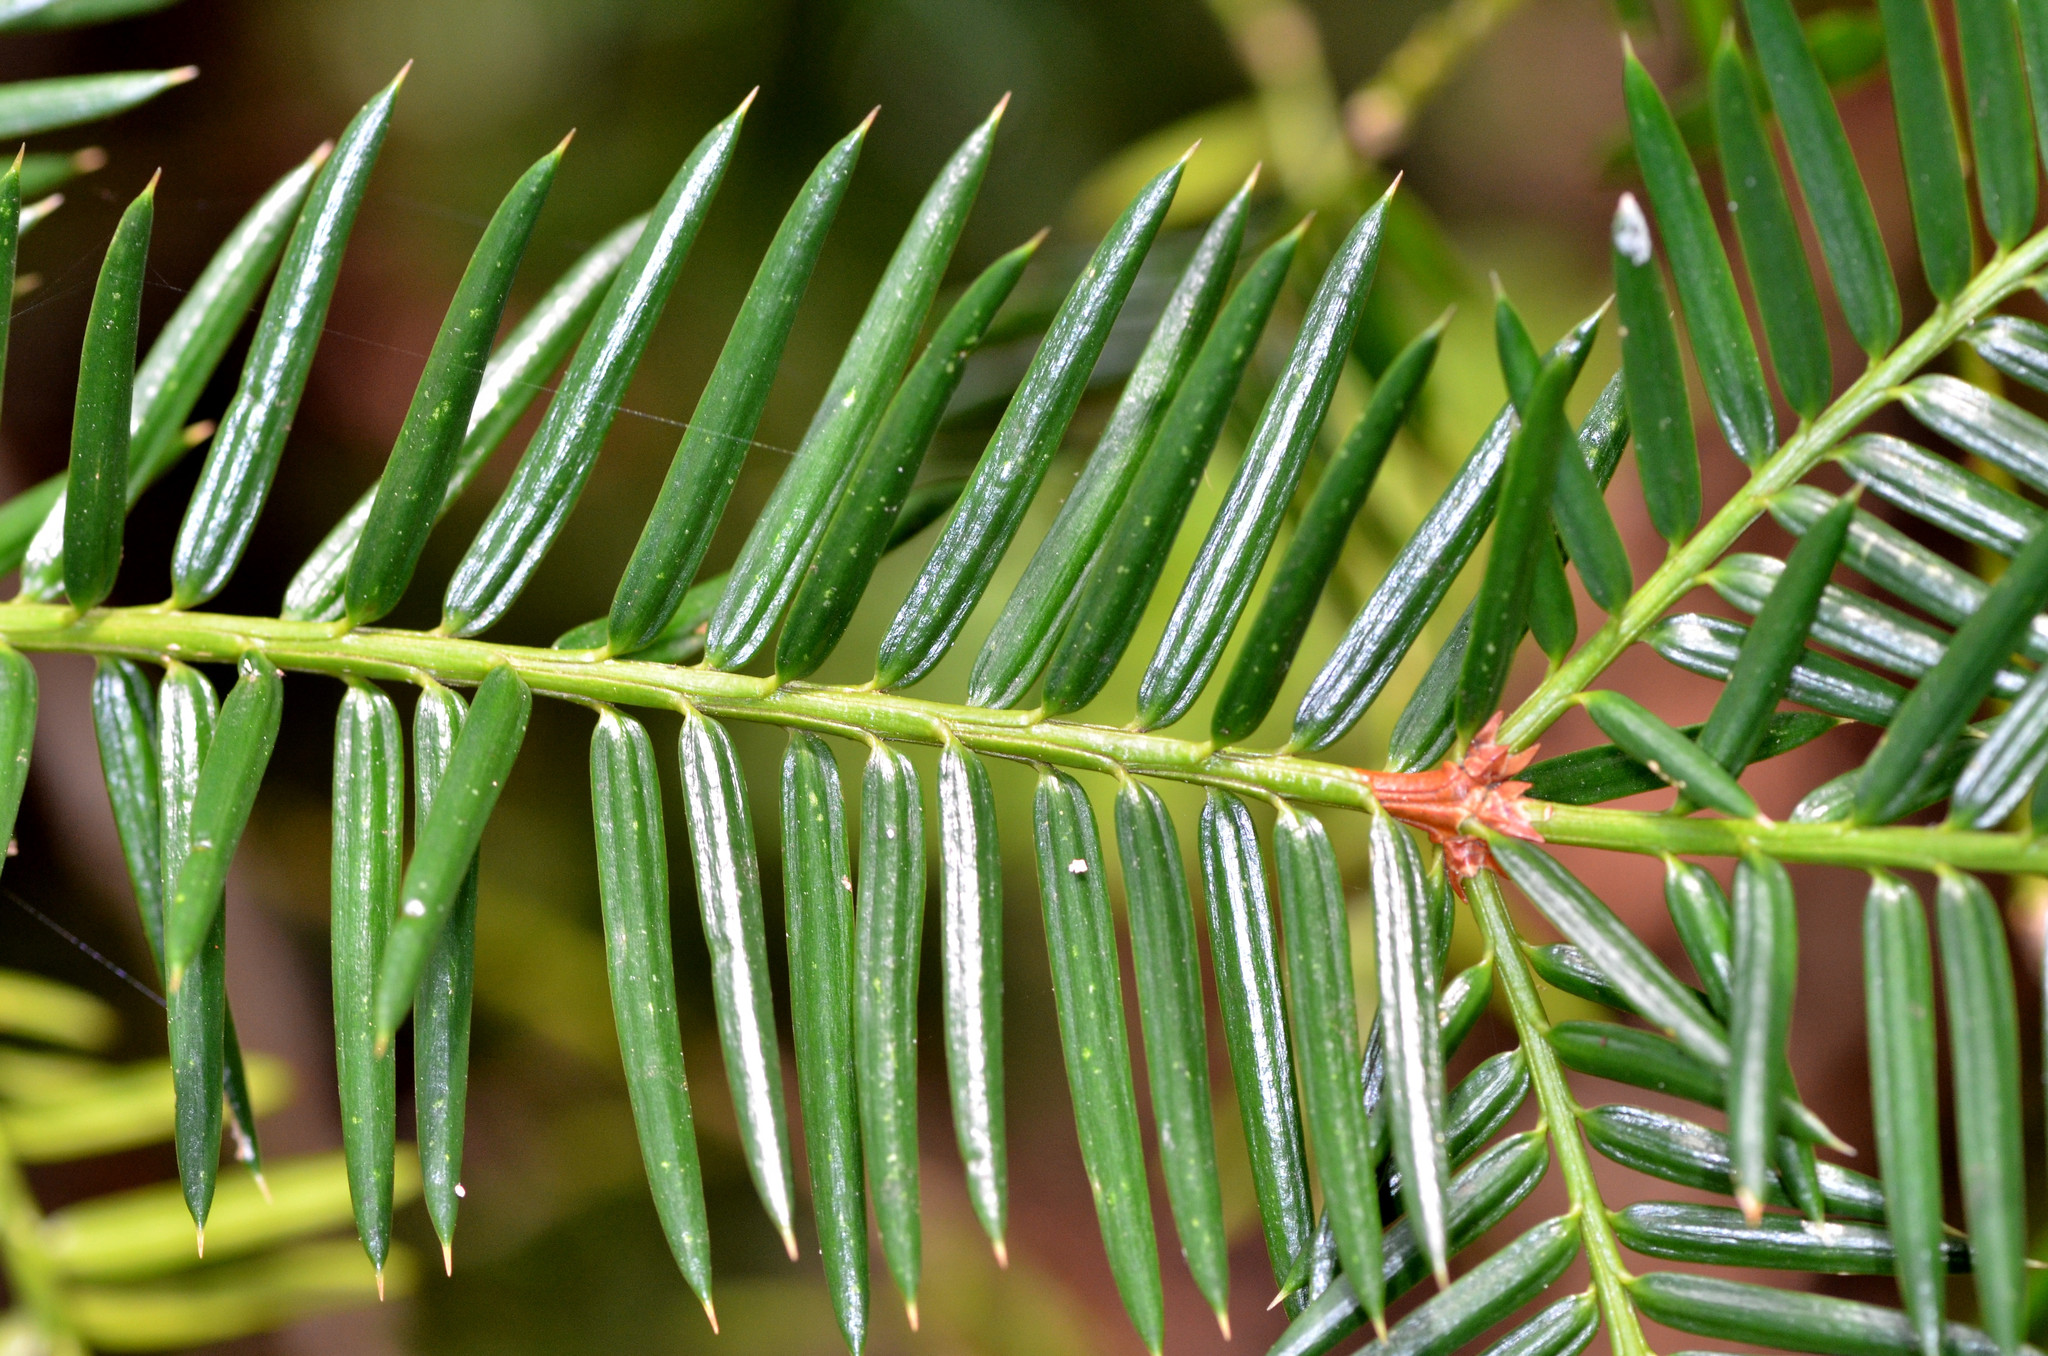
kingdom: Plantae
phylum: Tracheophyta
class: Pinopsida
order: Pinales
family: Taxaceae
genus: Torreya
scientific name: Torreya californica
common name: California torreya
